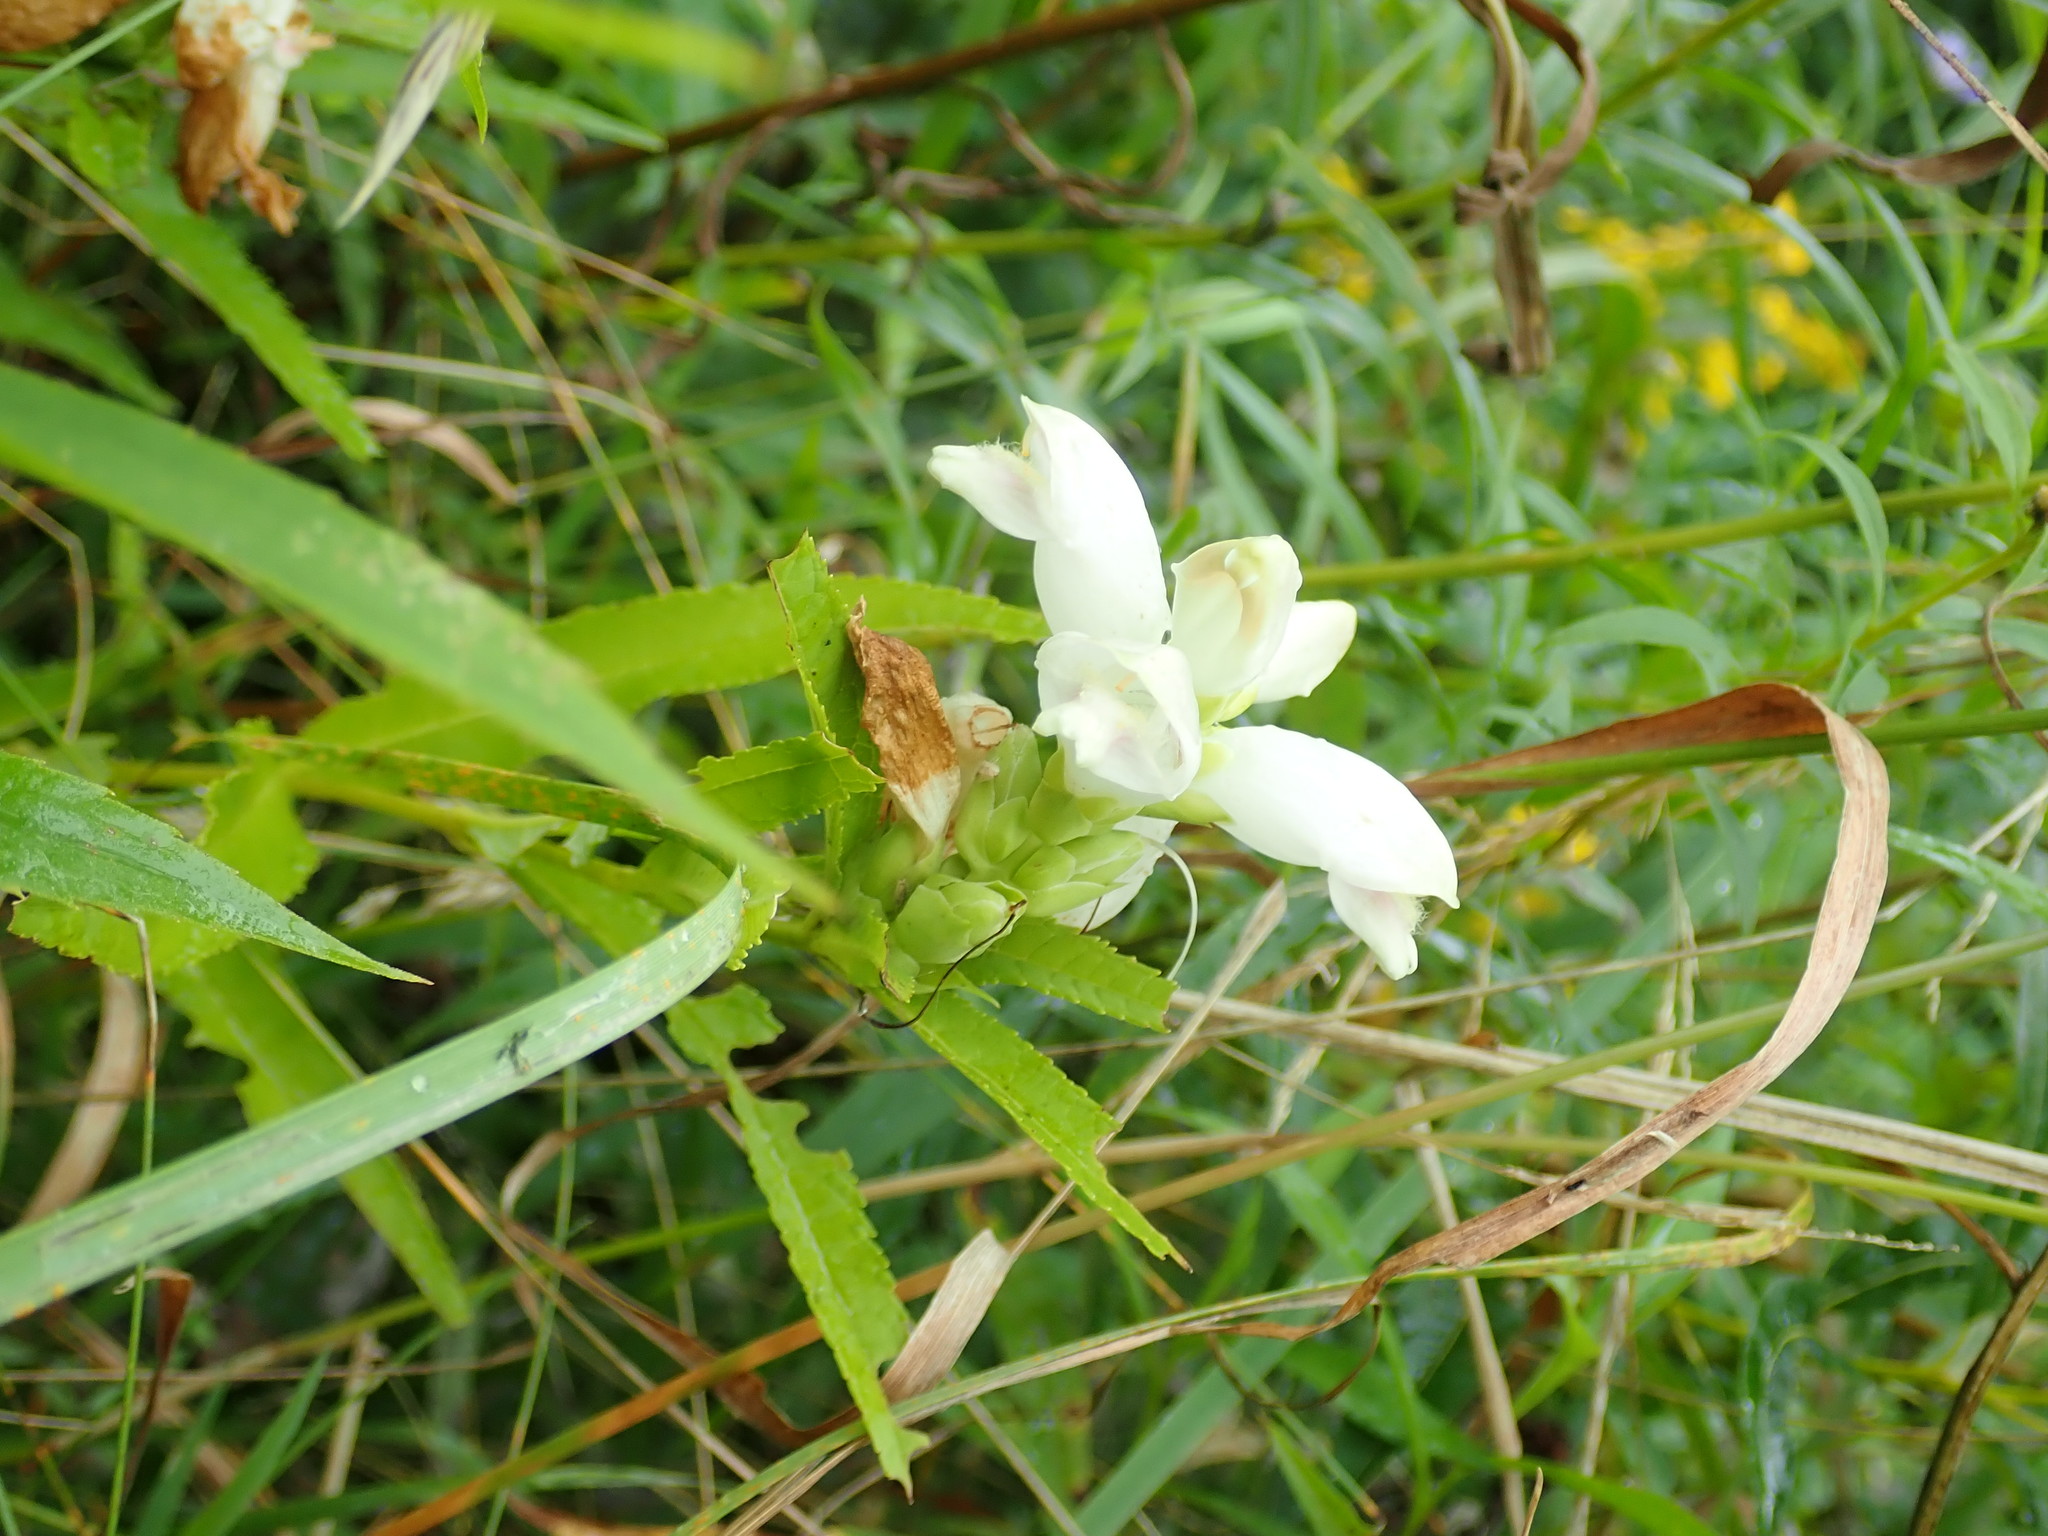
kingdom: Plantae
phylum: Tracheophyta
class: Magnoliopsida
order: Lamiales
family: Plantaginaceae
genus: Chelone
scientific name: Chelone glabra
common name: Snakehead
